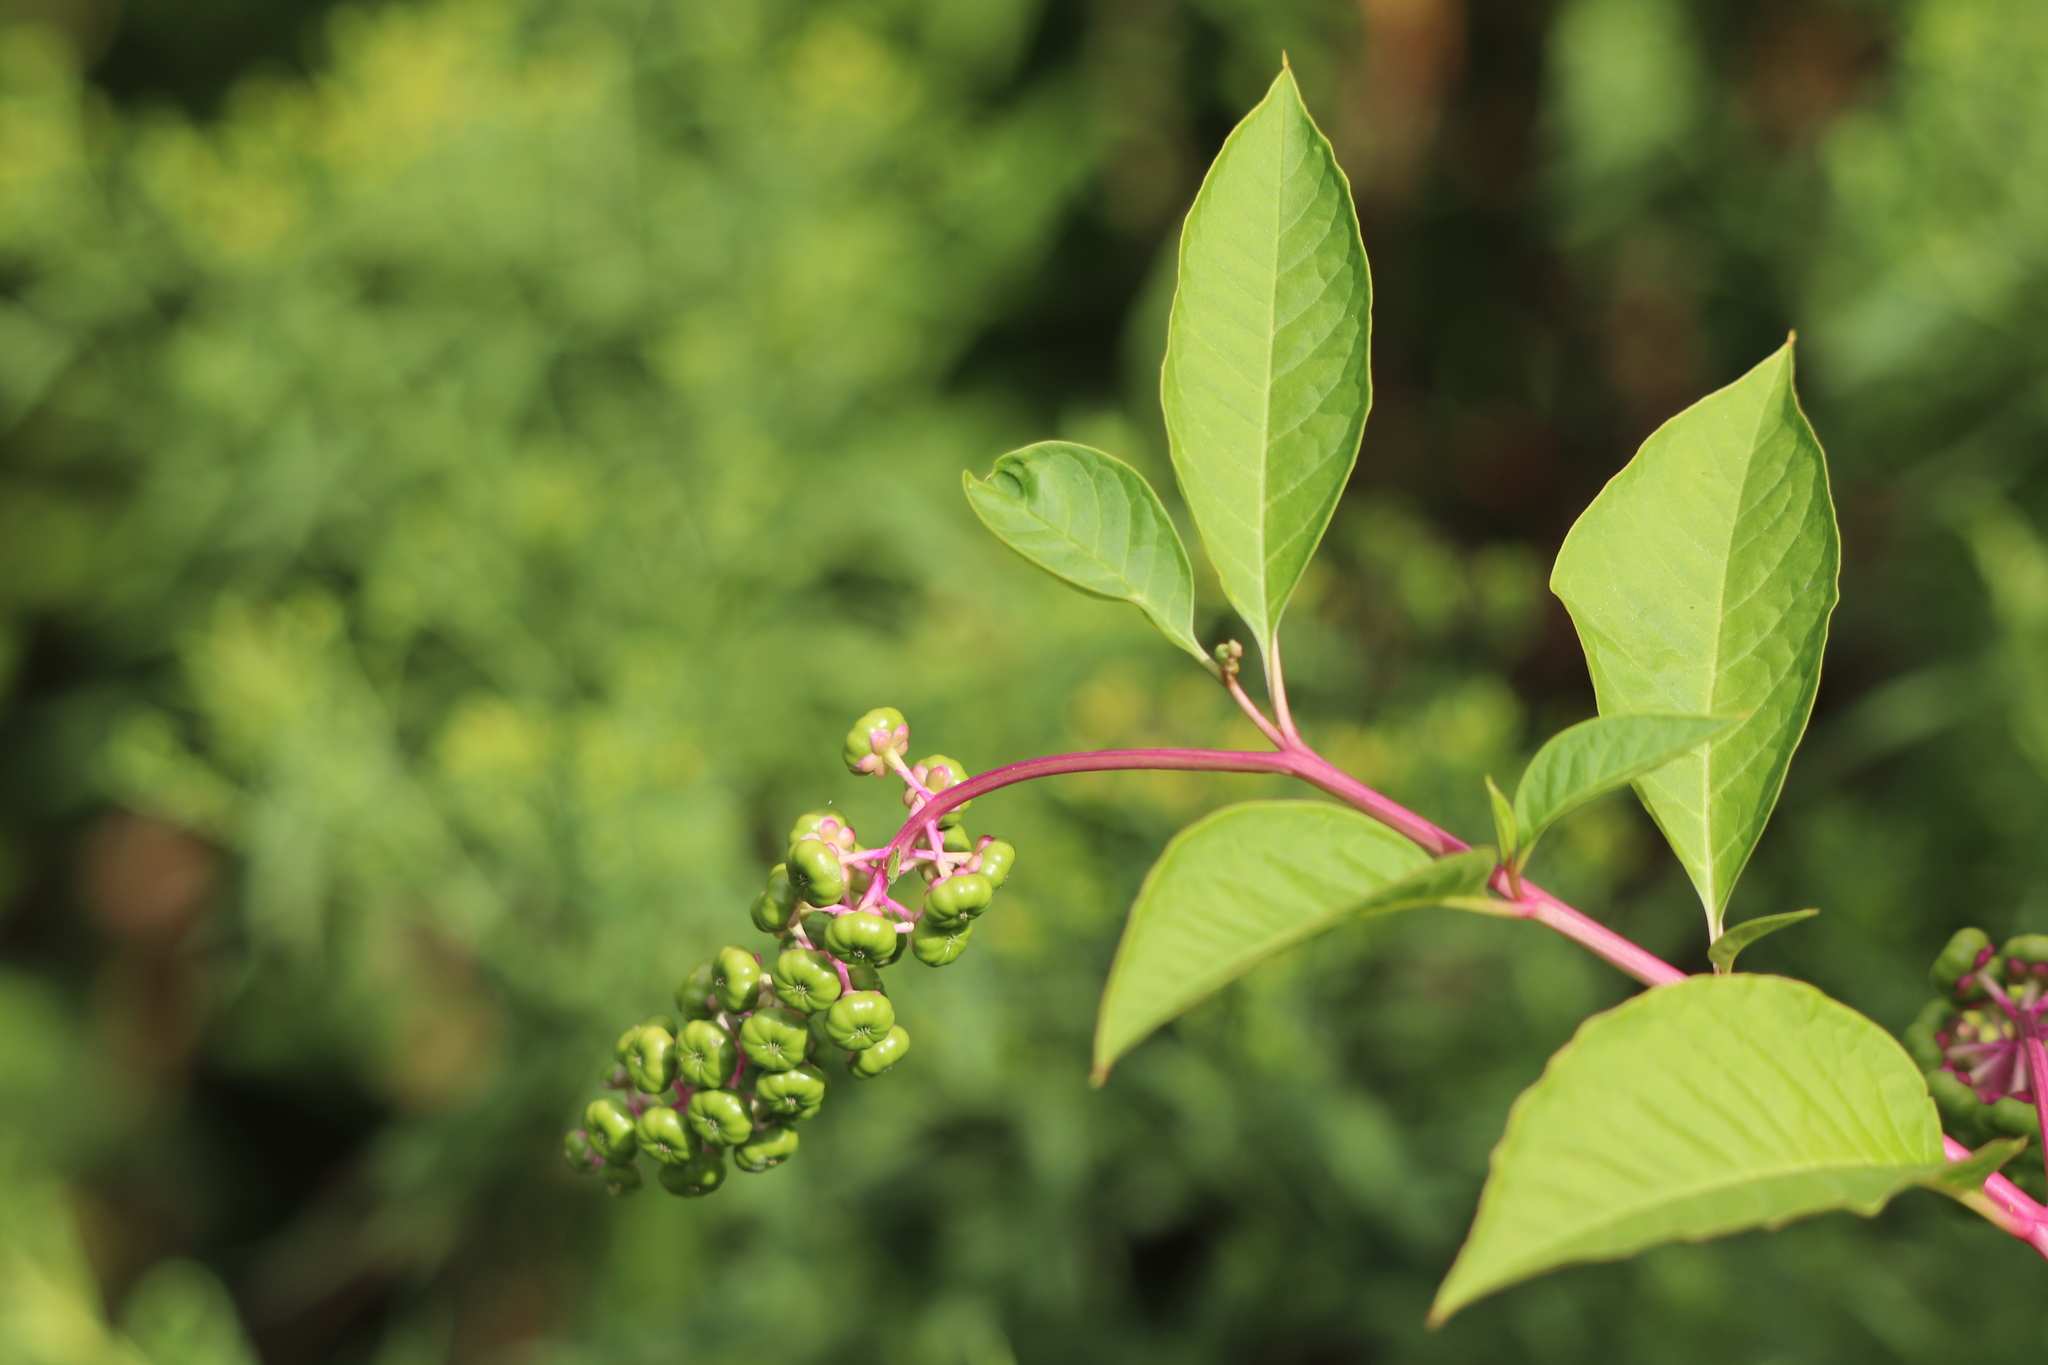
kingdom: Plantae
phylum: Tracheophyta
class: Magnoliopsida
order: Caryophyllales
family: Phytolaccaceae
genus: Phytolacca
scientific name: Phytolacca americana
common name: American pokeweed
